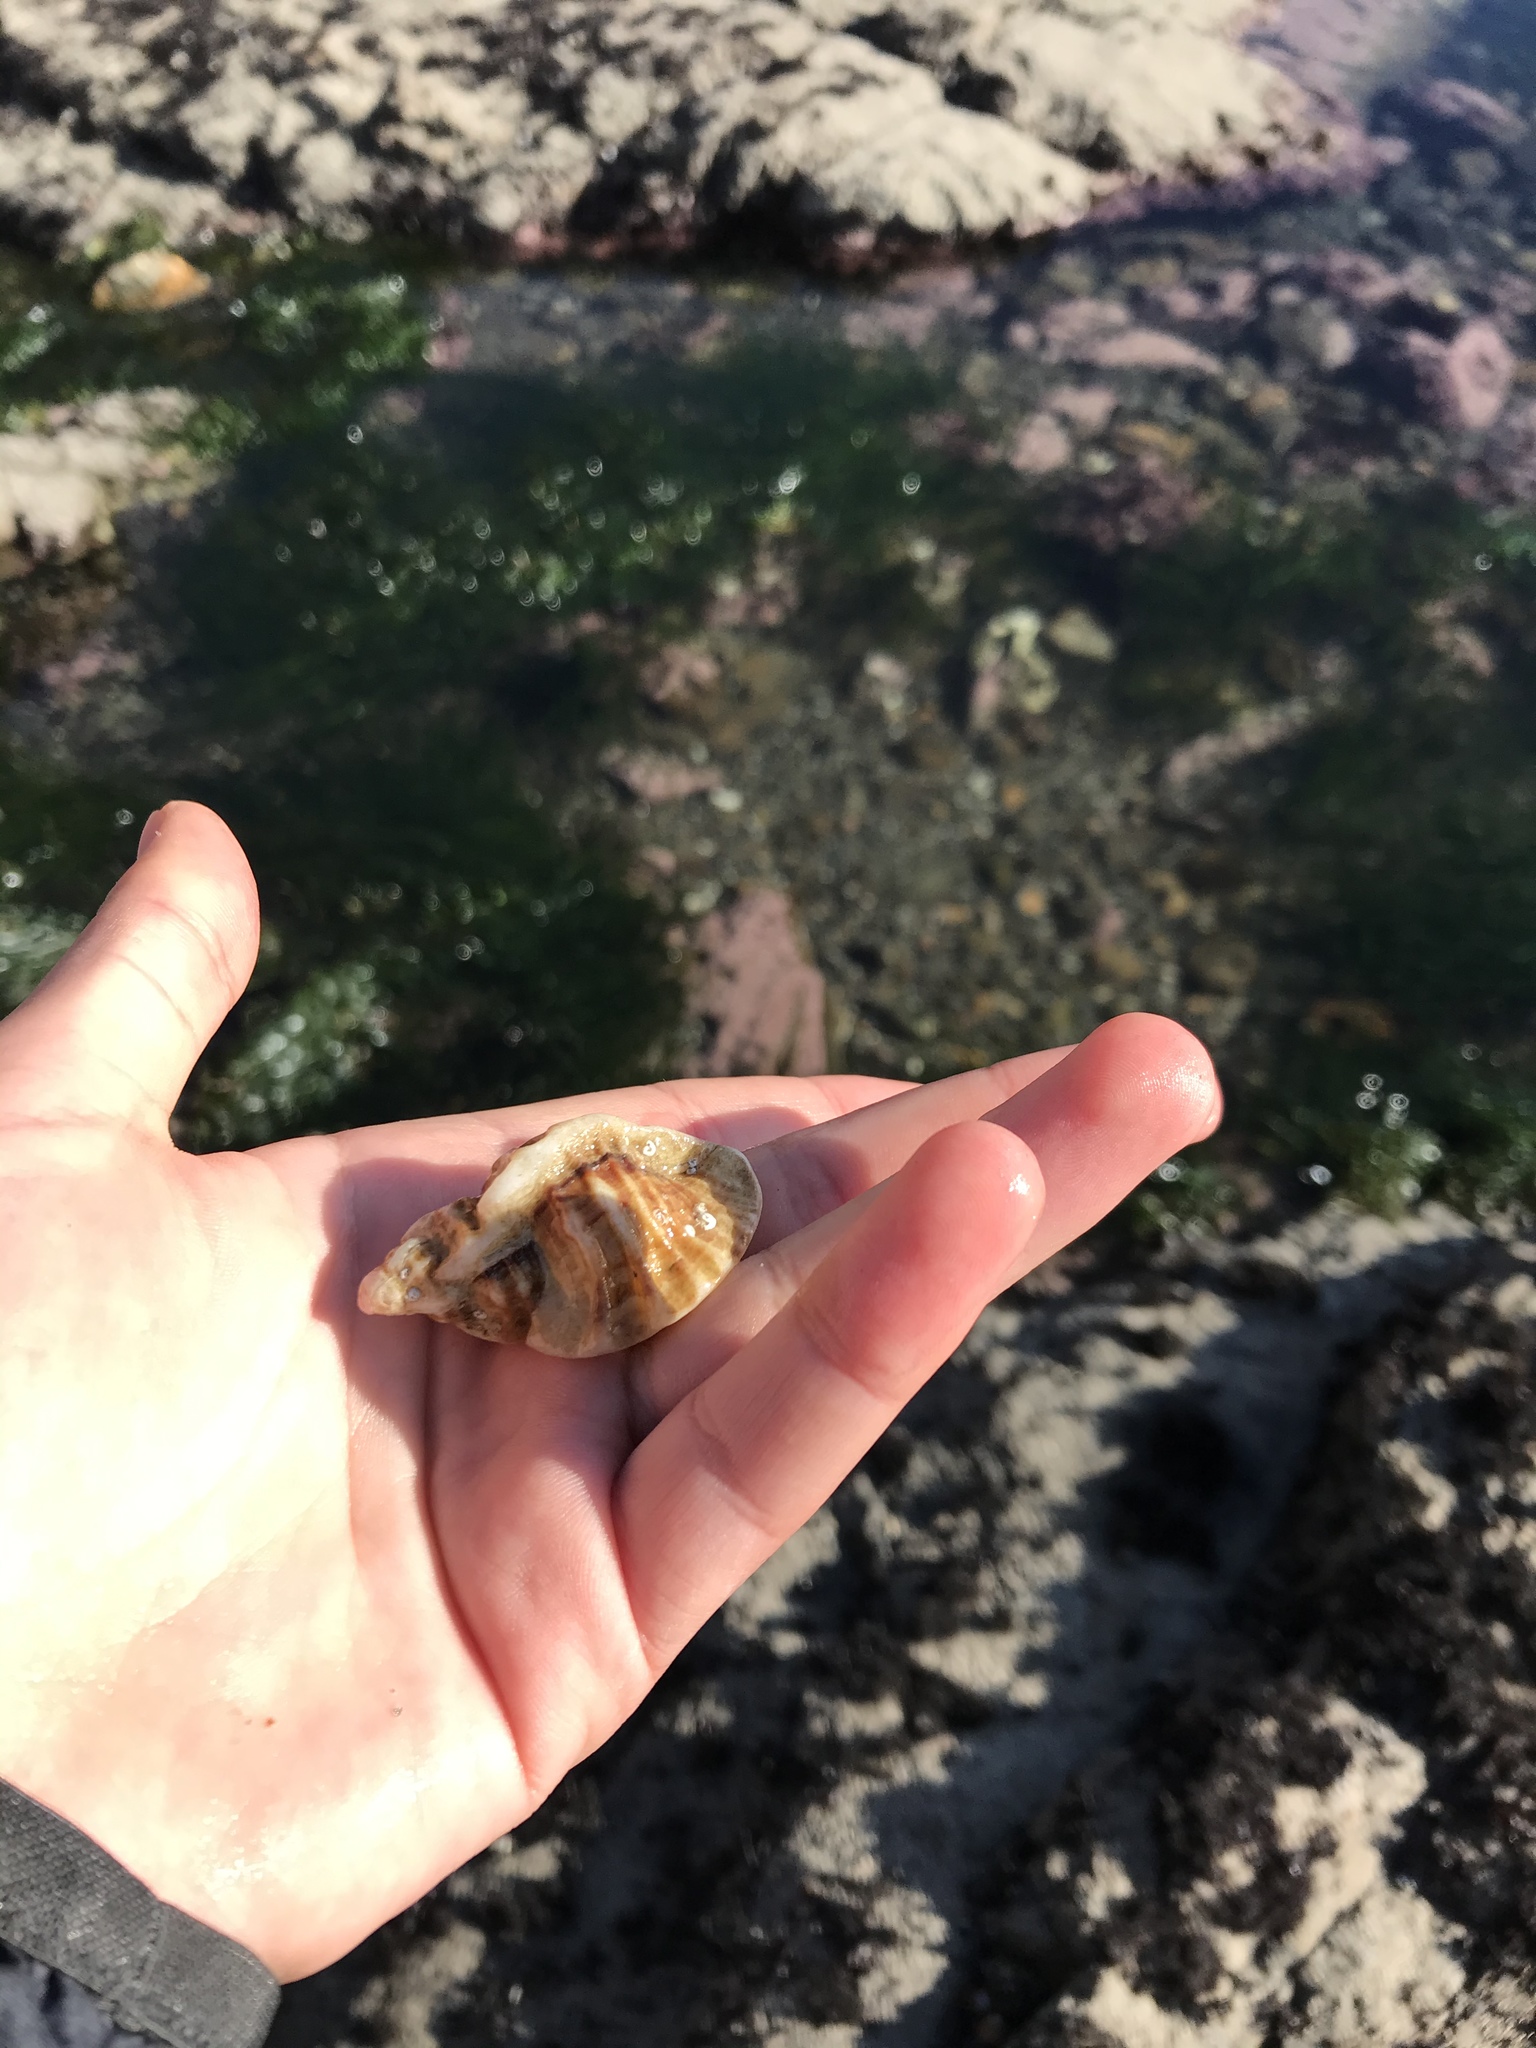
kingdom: Animalia
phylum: Mollusca
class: Gastropoda
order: Neogastropoda
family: Muricidae
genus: Ceratostoma
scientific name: Ceratostoma foliatum
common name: Foliate thorn purpura
